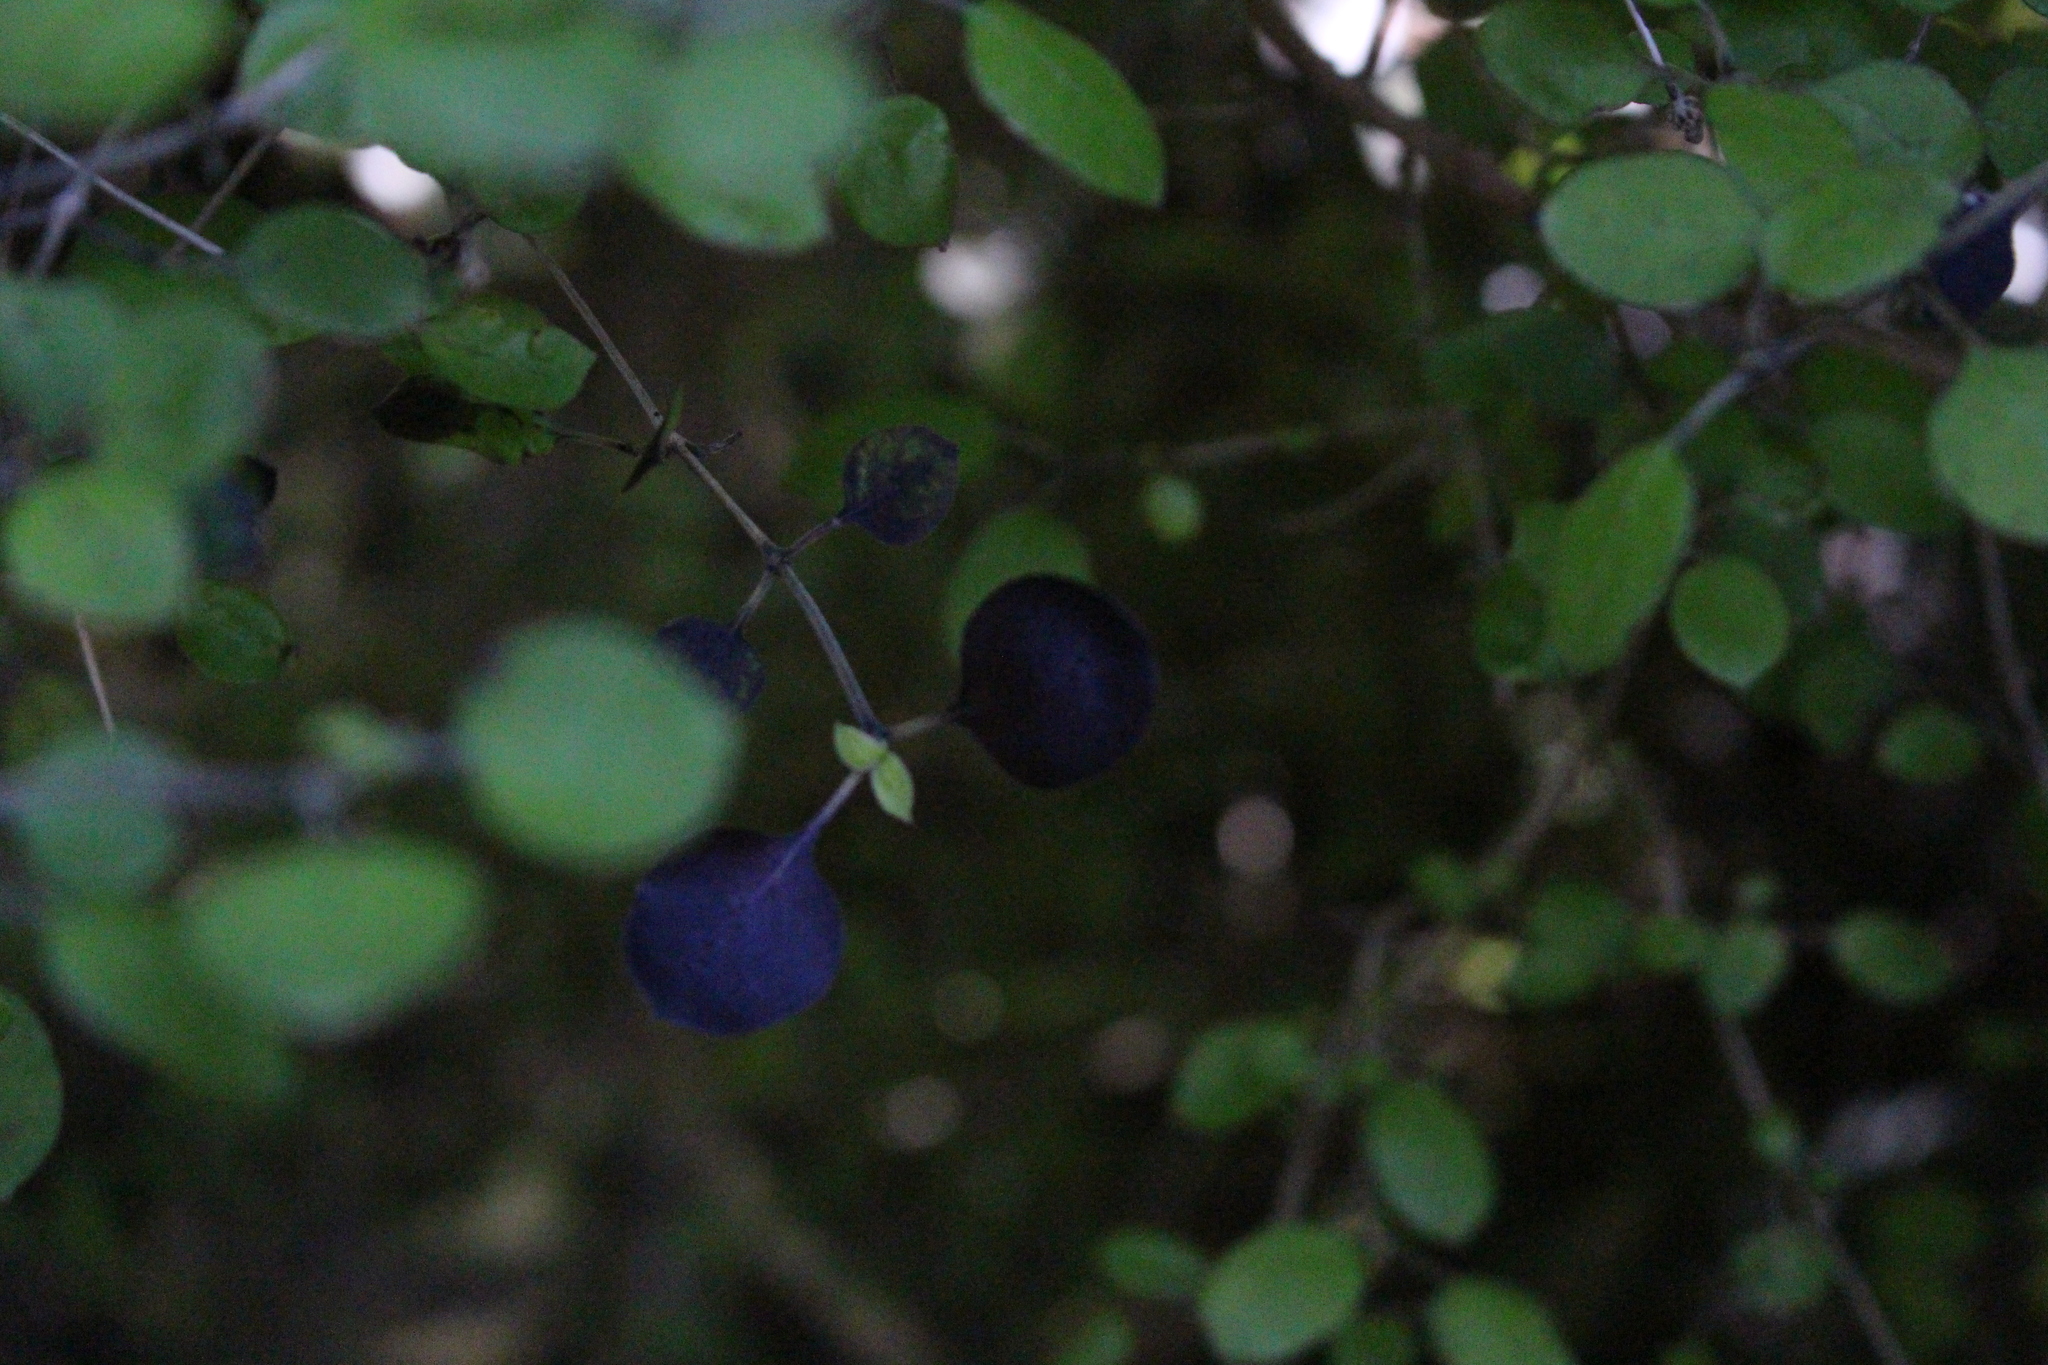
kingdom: Plantae
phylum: Tracheophyta
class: Magnoliopsida
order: Gentianales
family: Rubiaceae
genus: Coprosma
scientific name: Coprosma rotundifolia
